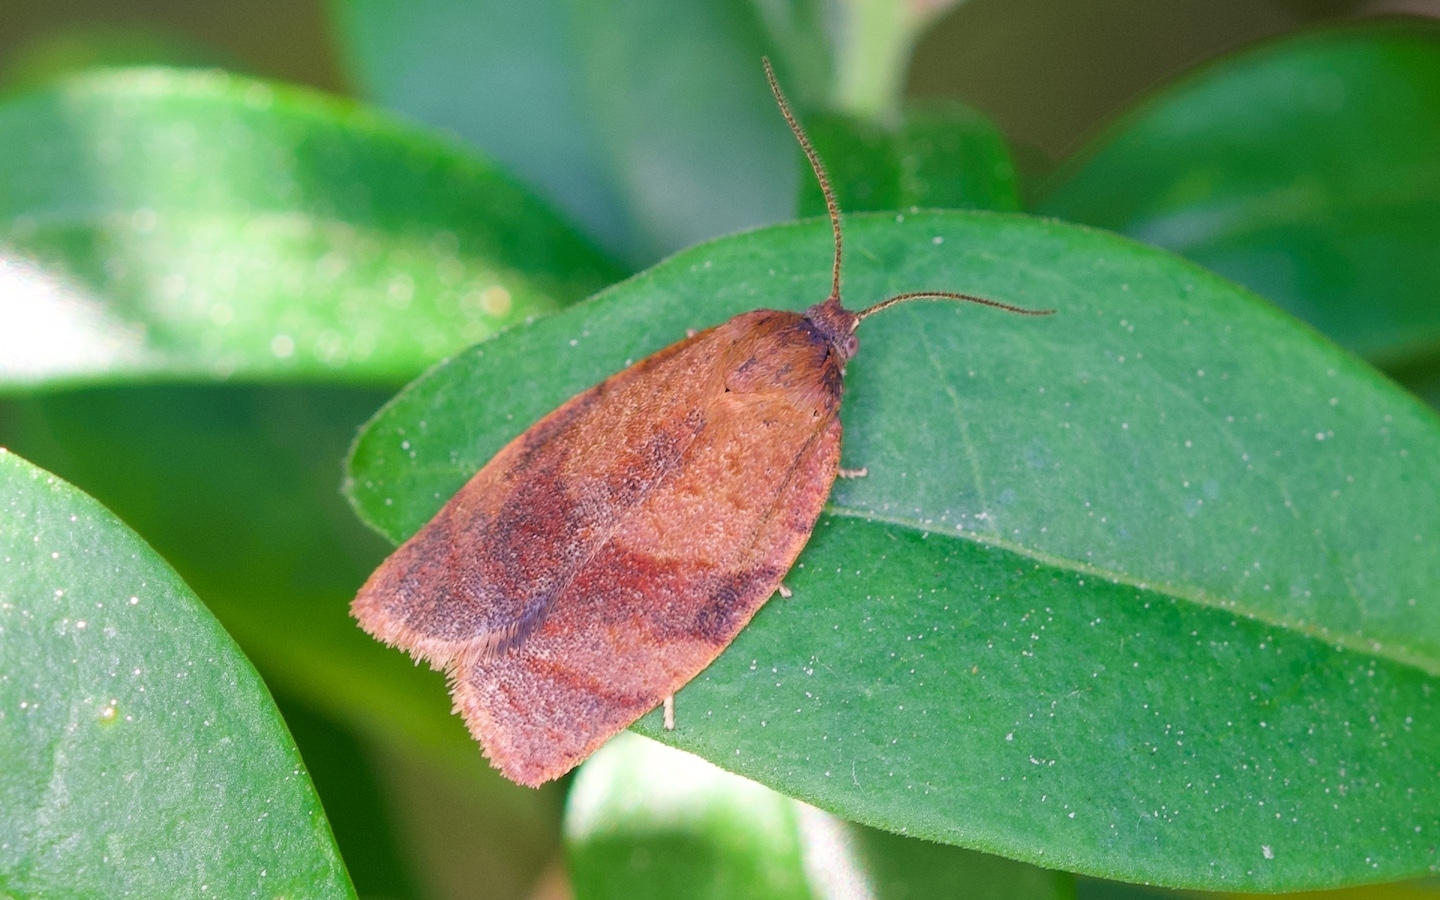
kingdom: Animalia
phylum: Arthropoda
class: Insecta
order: Lepidoptera
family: Tortricidae
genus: Cacoecimorpha
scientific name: Cacoecimorpha pronubana
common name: Carnation tortrix
